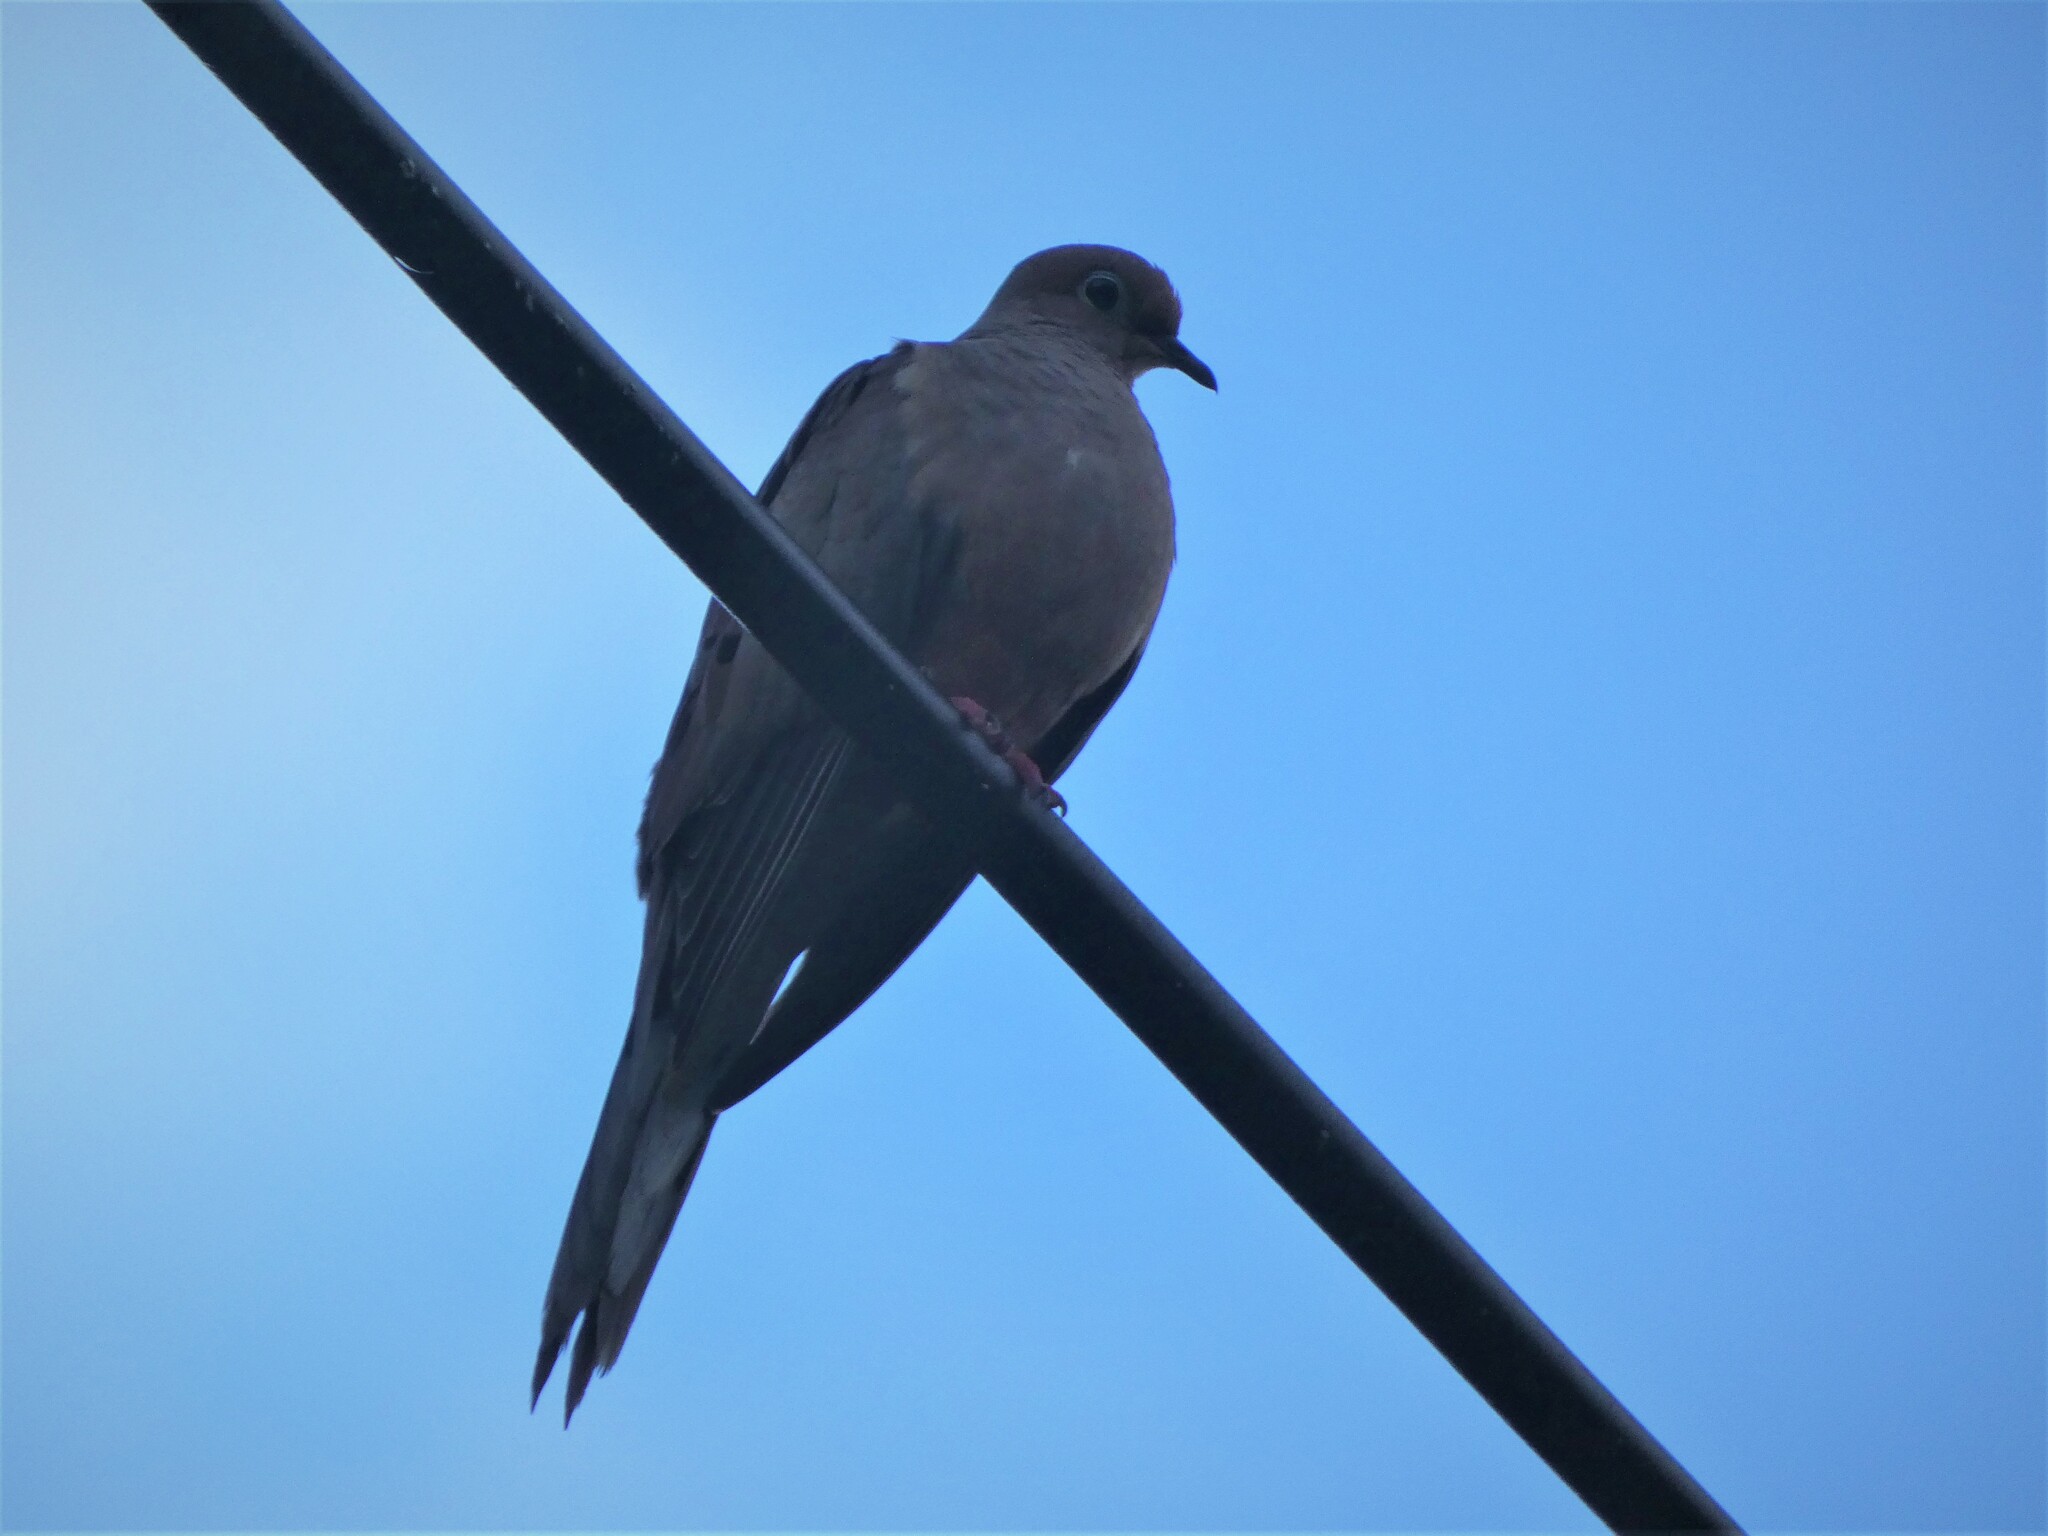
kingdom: Animalia
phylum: Chordata
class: Aves
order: Columbiformes
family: Columbidae
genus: Zenaida
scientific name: Zenaida macroura
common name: Mourning dove
